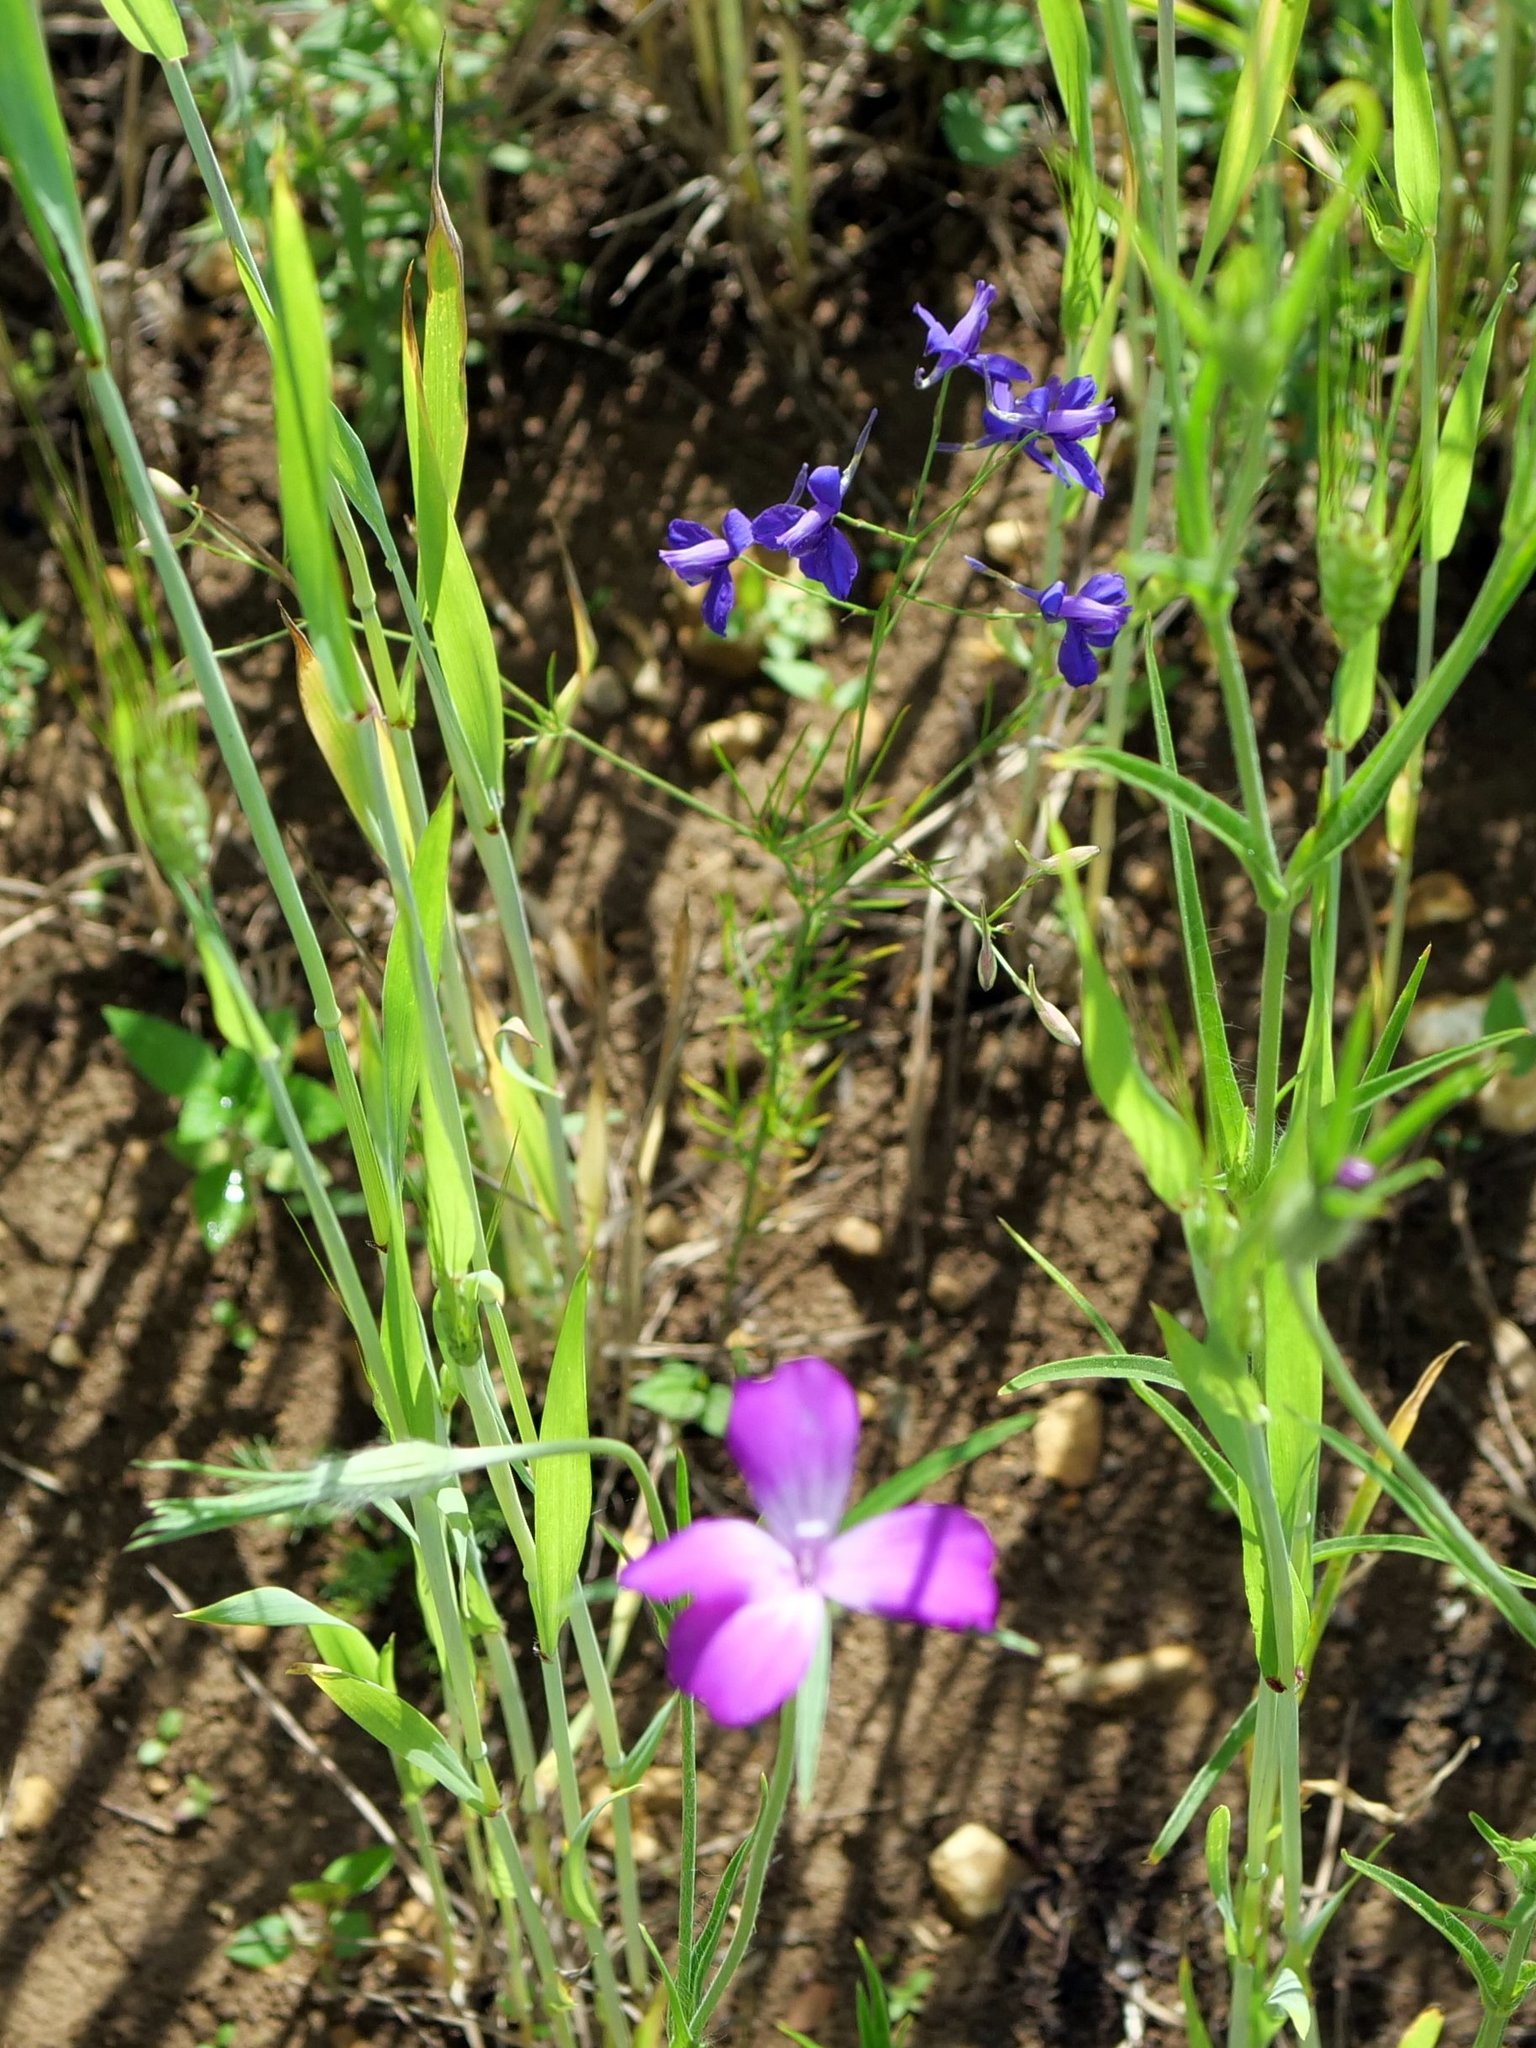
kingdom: Plantae
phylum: Tracheophyta
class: Magnoliopsida
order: Ranunculales
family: Ranunculaceae
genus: Delphinium
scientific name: Delphinium consolida
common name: Branching larkspur
